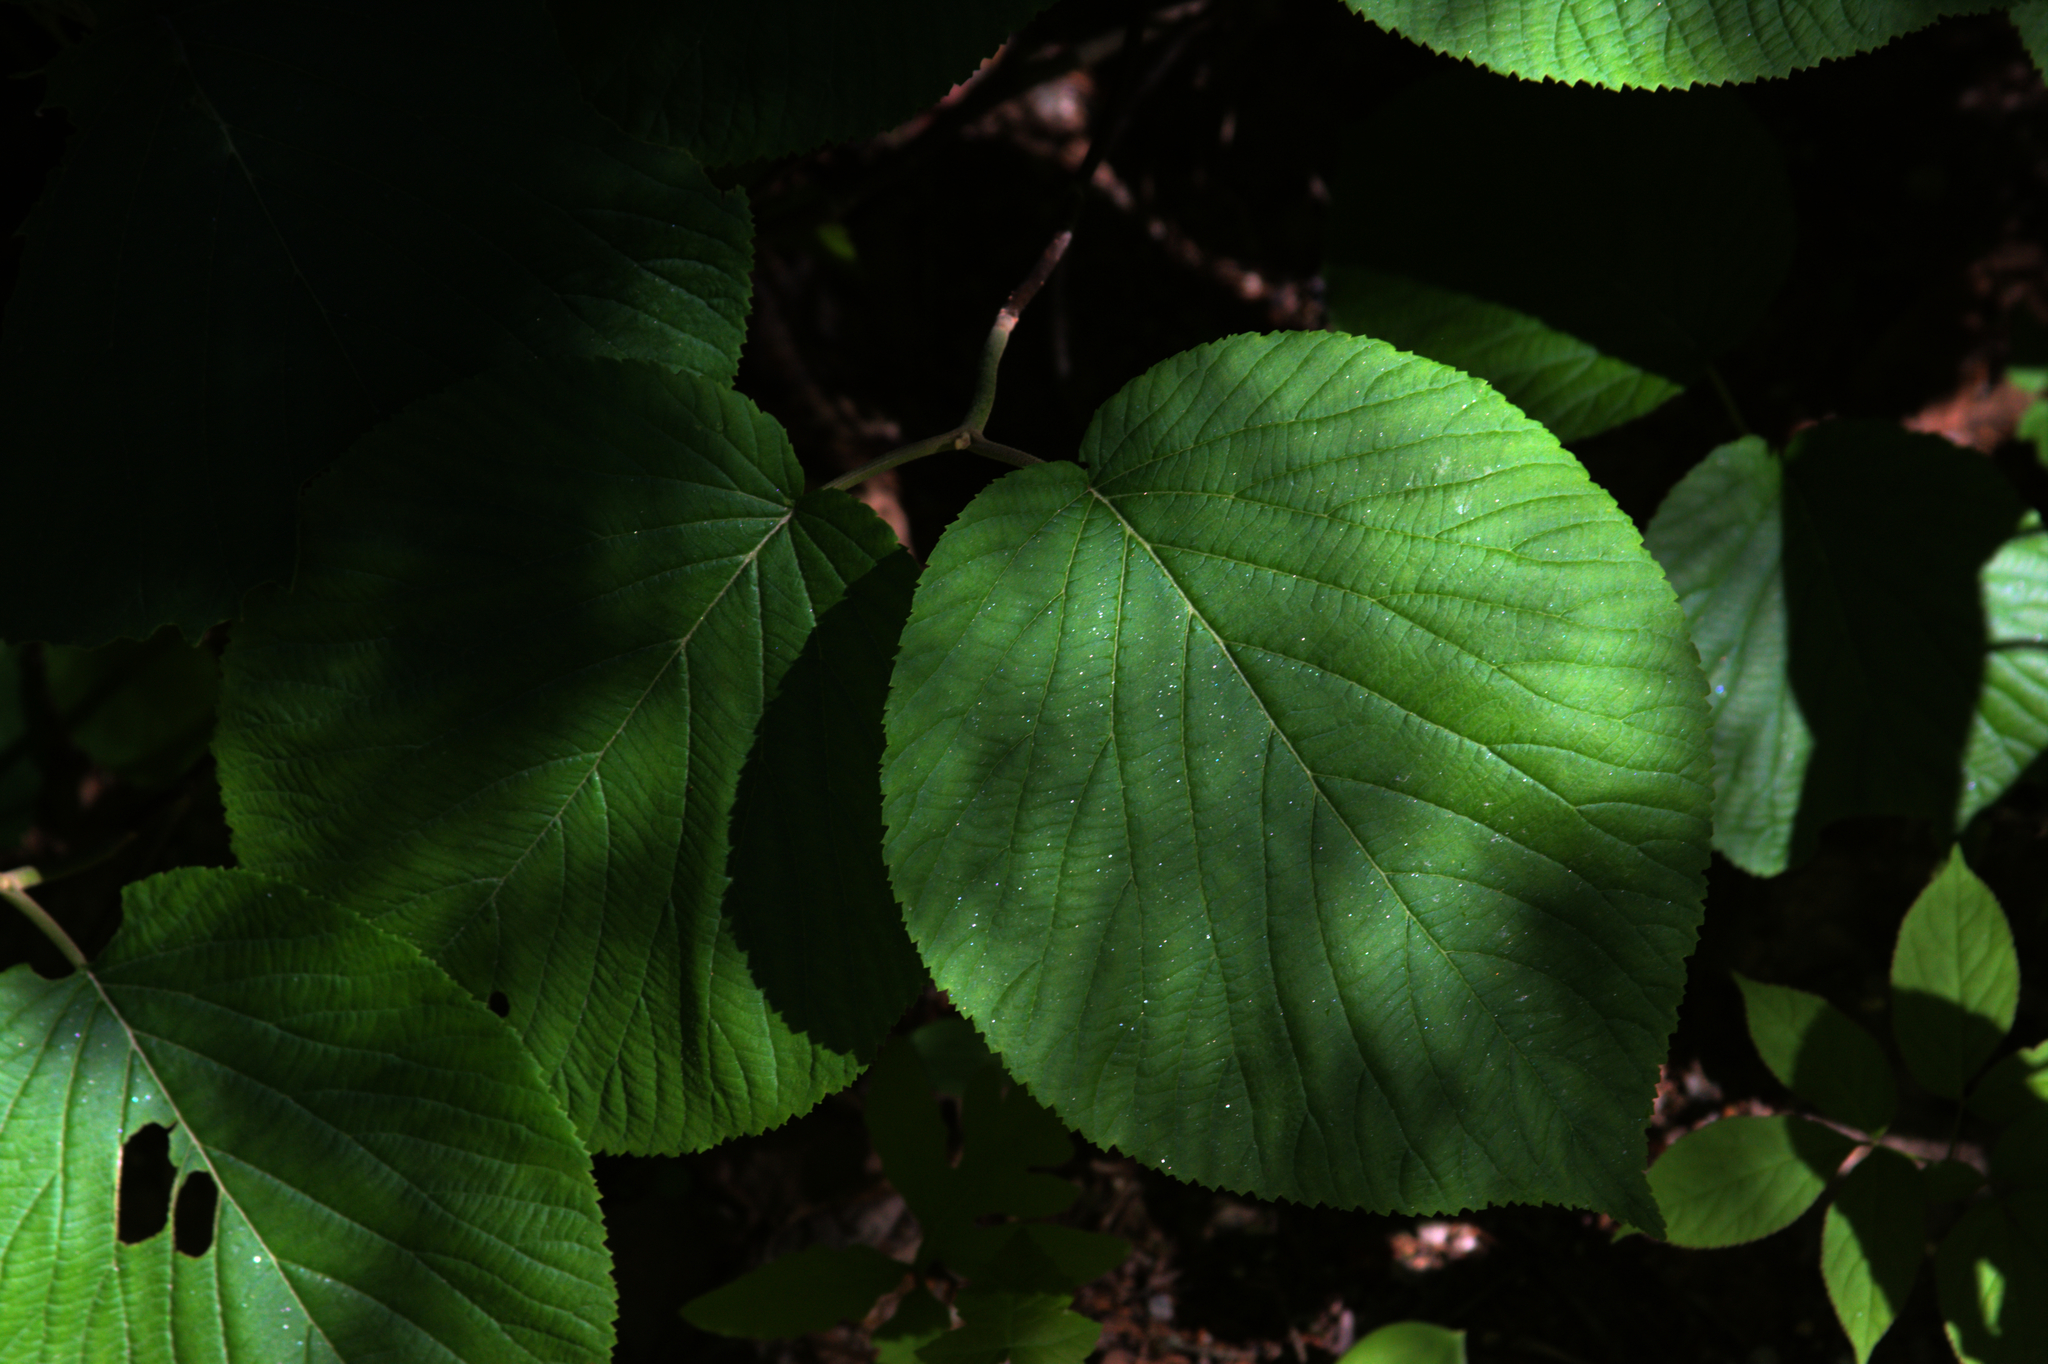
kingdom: Plantae
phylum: Tracheophyta
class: Magnoliopsida
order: Dipsacales
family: Viburnaceae
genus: Viburnum
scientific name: Viburnum lantanoides
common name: Hobblebush
